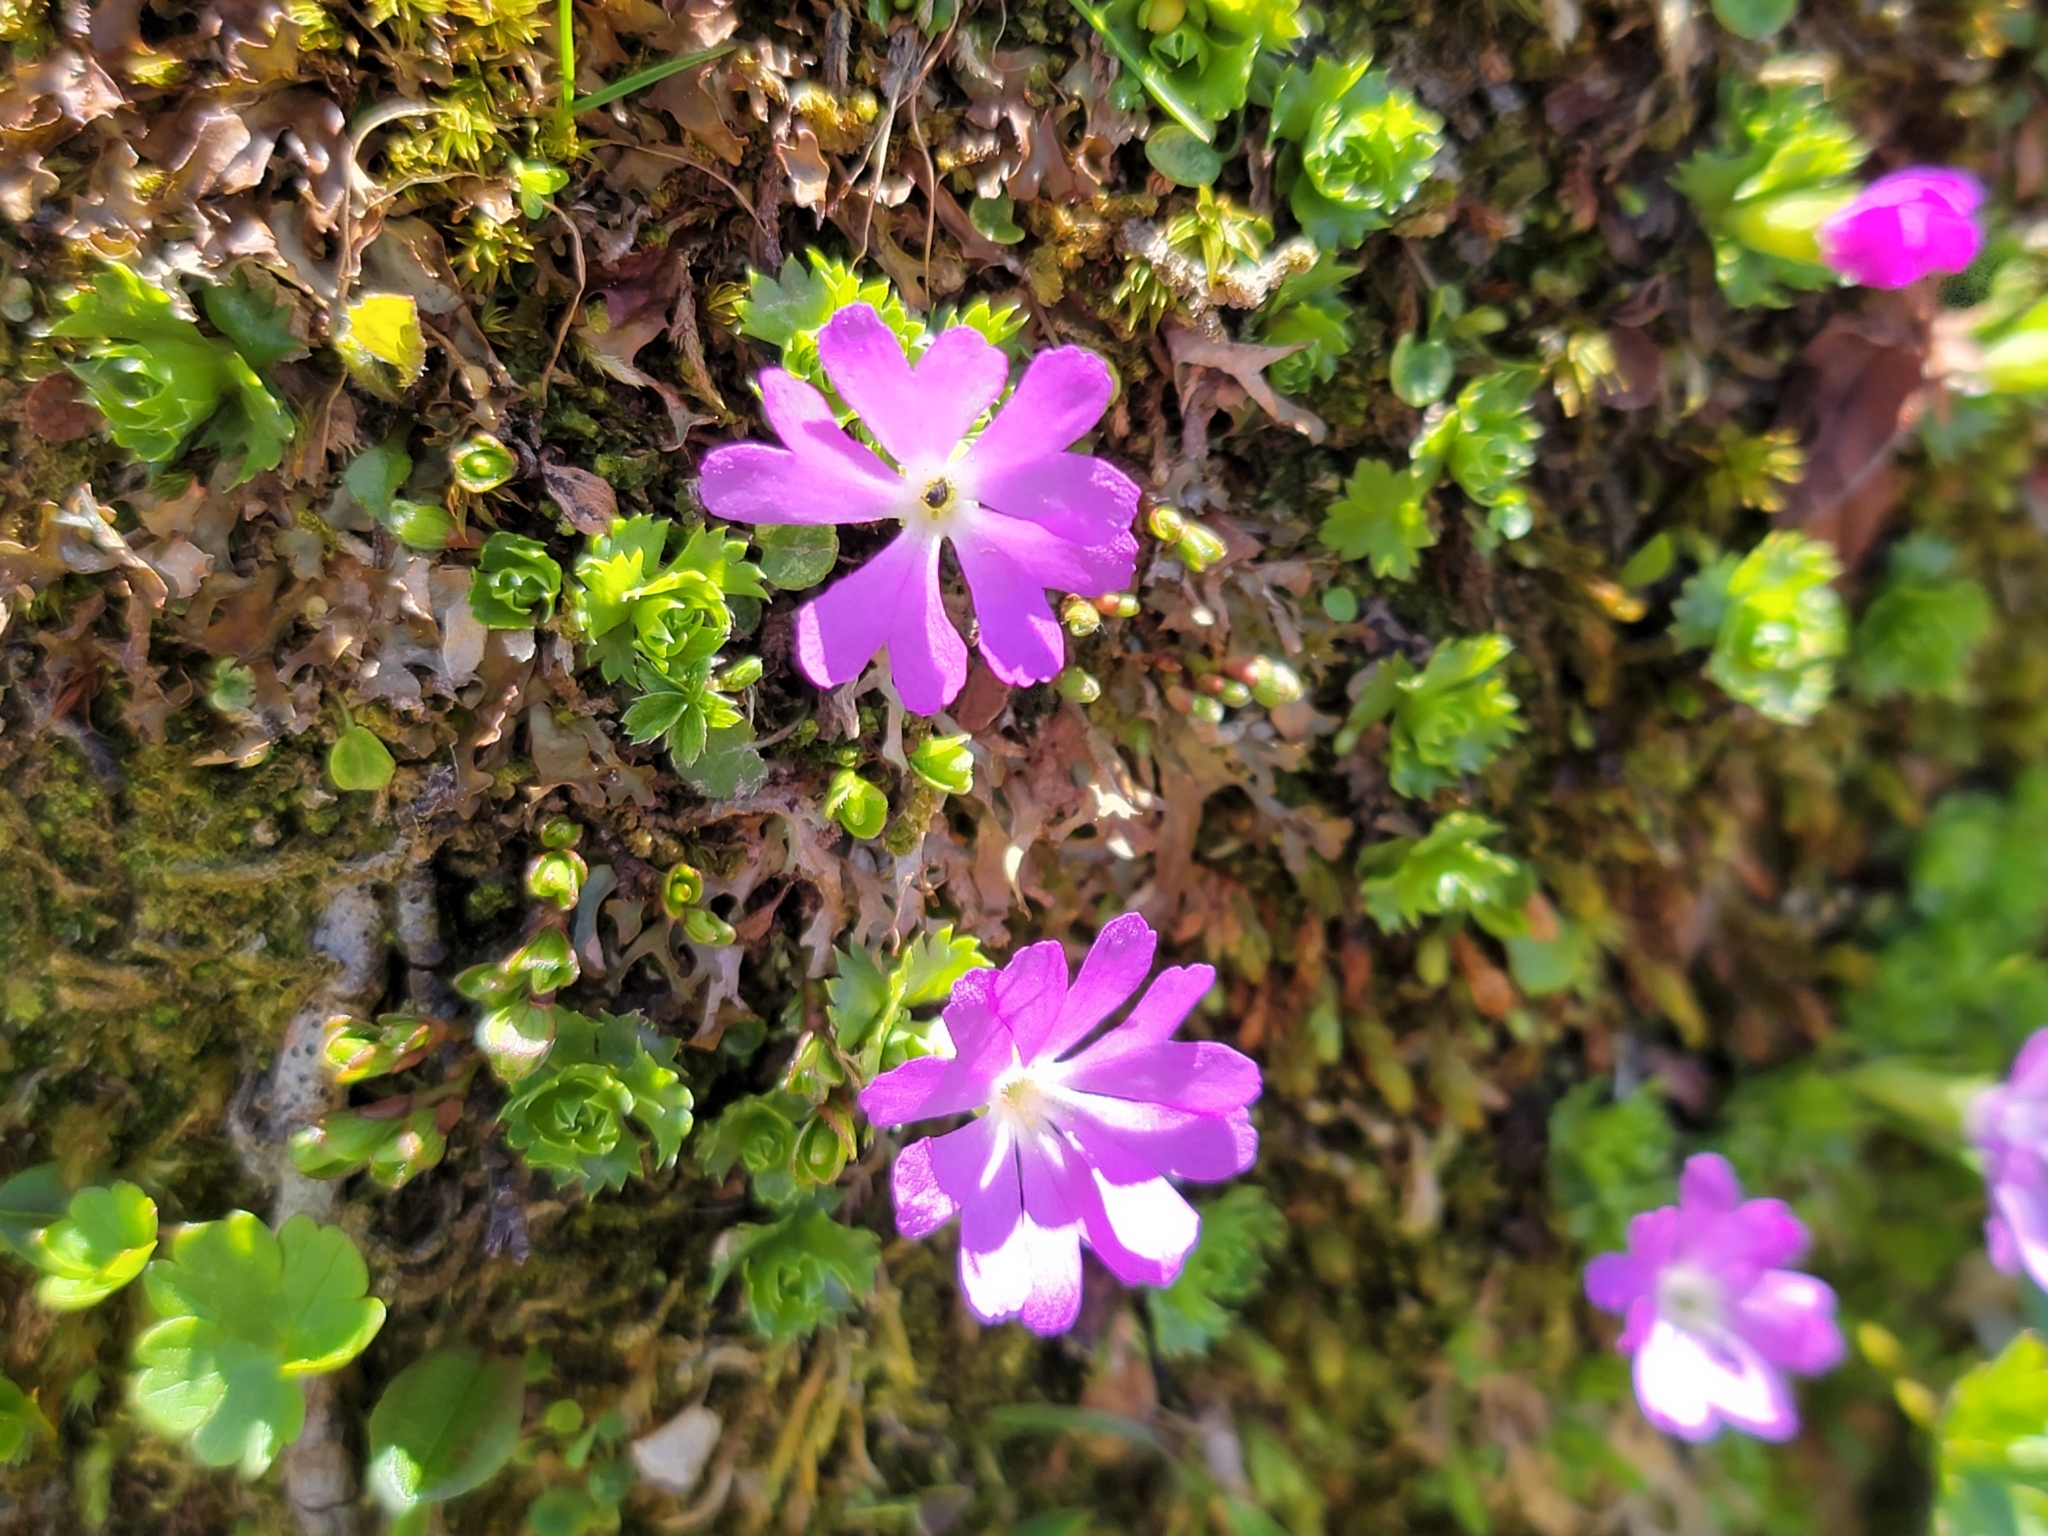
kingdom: Plantae
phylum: Tracheophyta
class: Magnoliopsida
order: Ericales
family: Primulaceae
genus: Primula
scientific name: Primula minima
